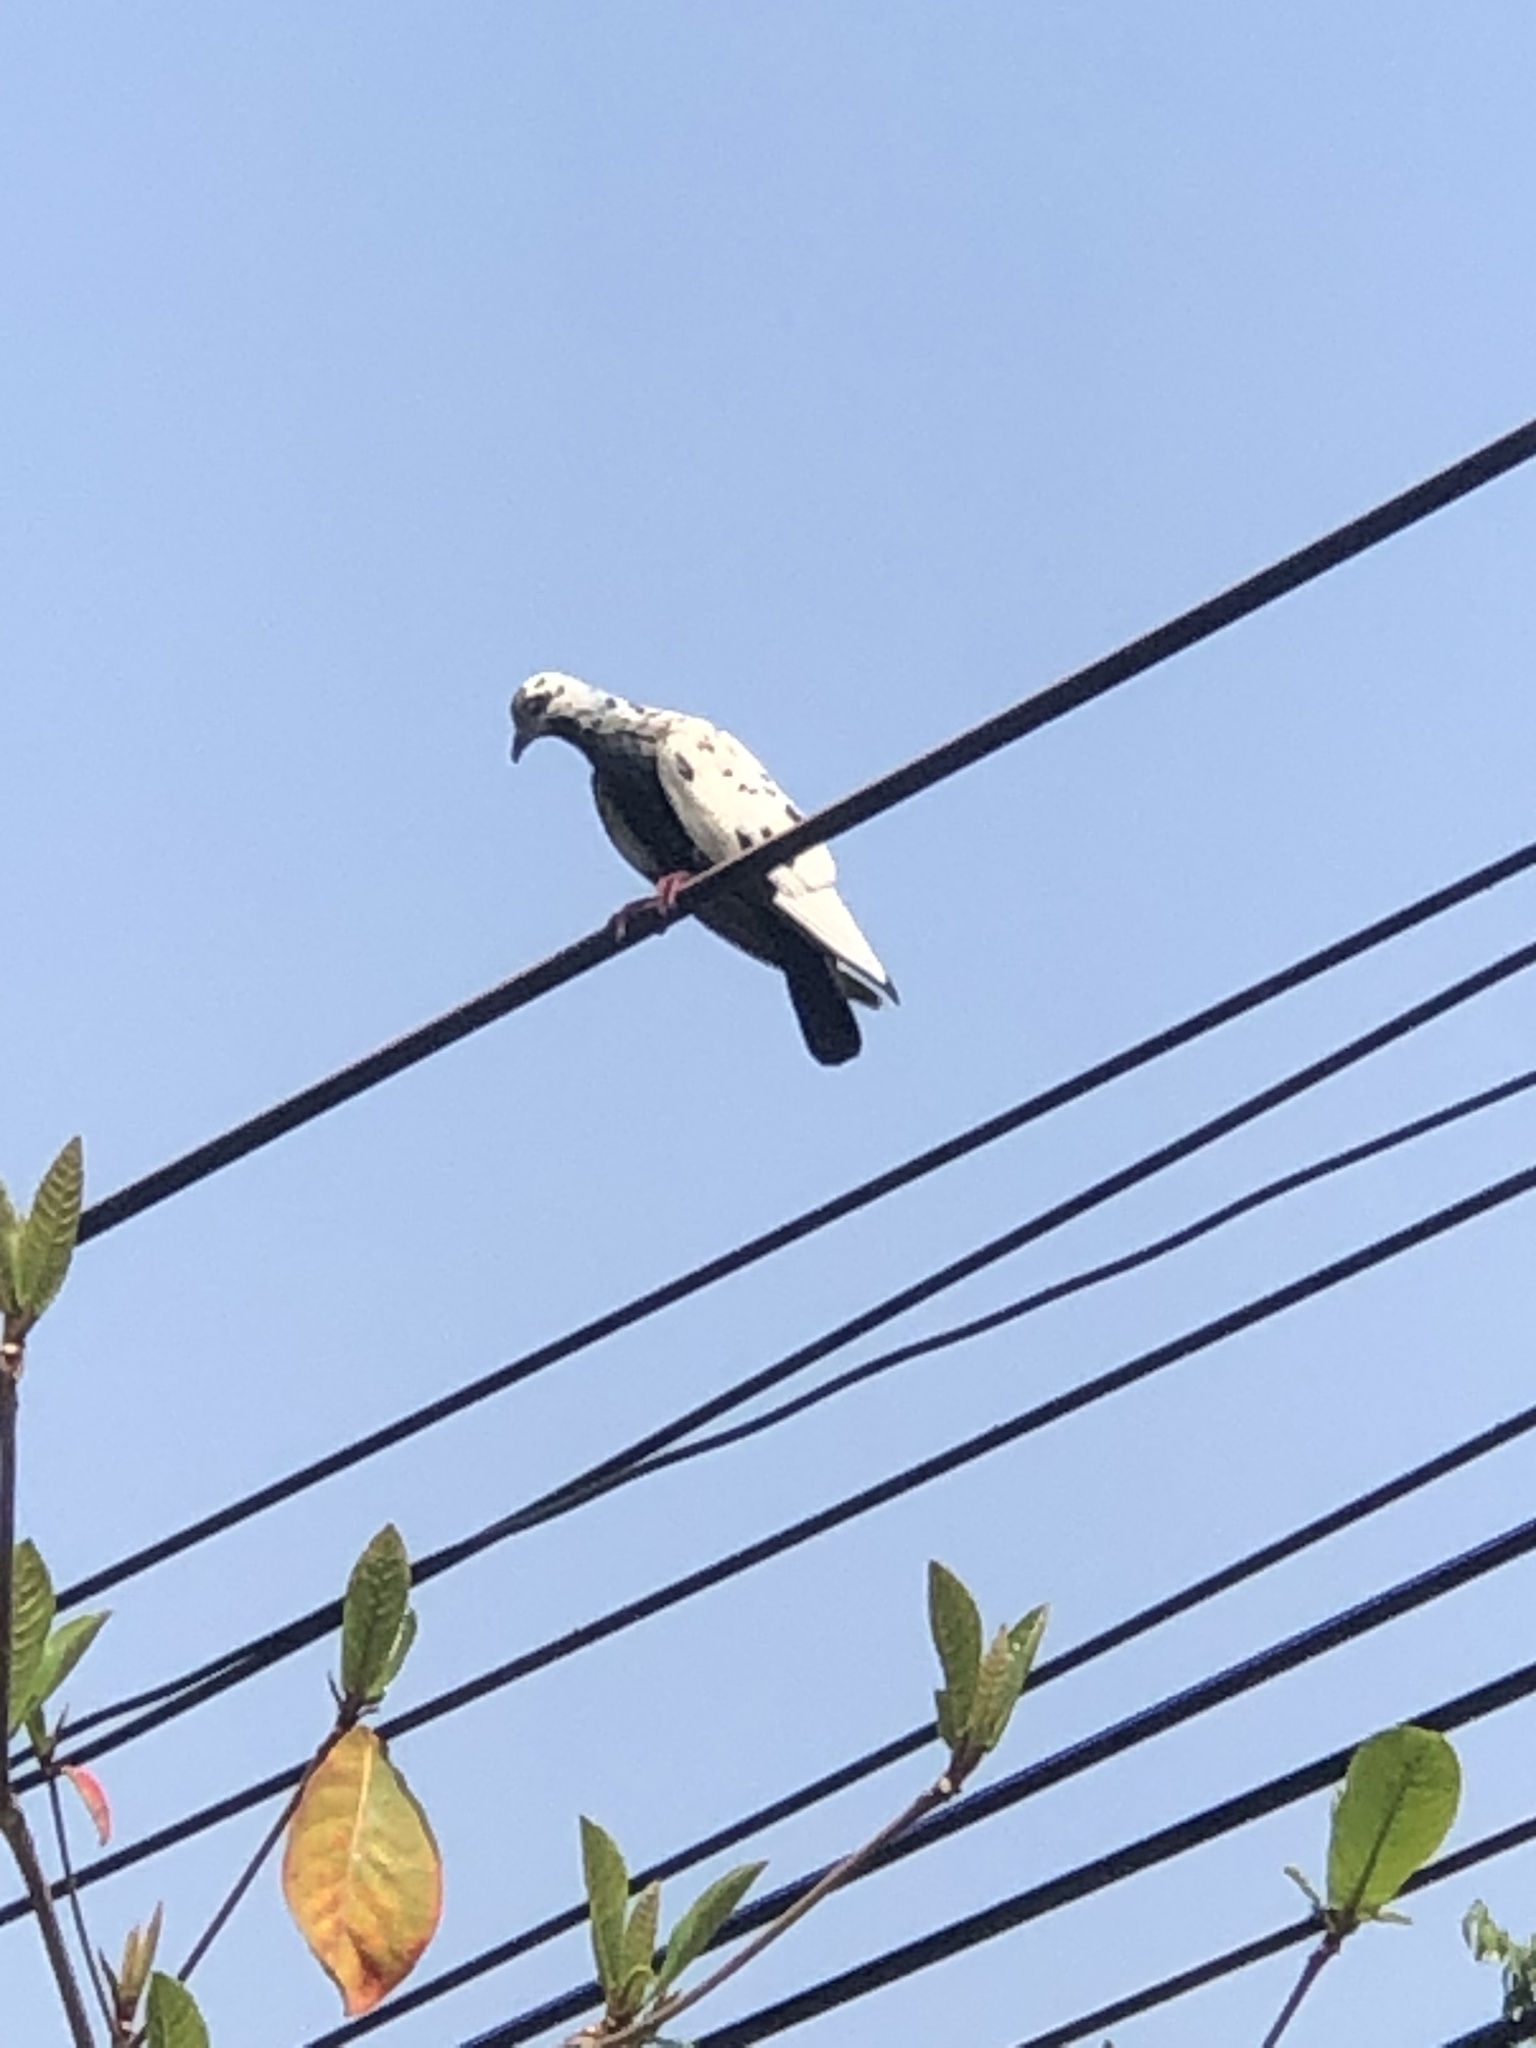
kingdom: Animalia
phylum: Chordata
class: Aves
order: Columbiformes
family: Columbidae
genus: Columba
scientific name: Columba livia
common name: Rock pigeon
